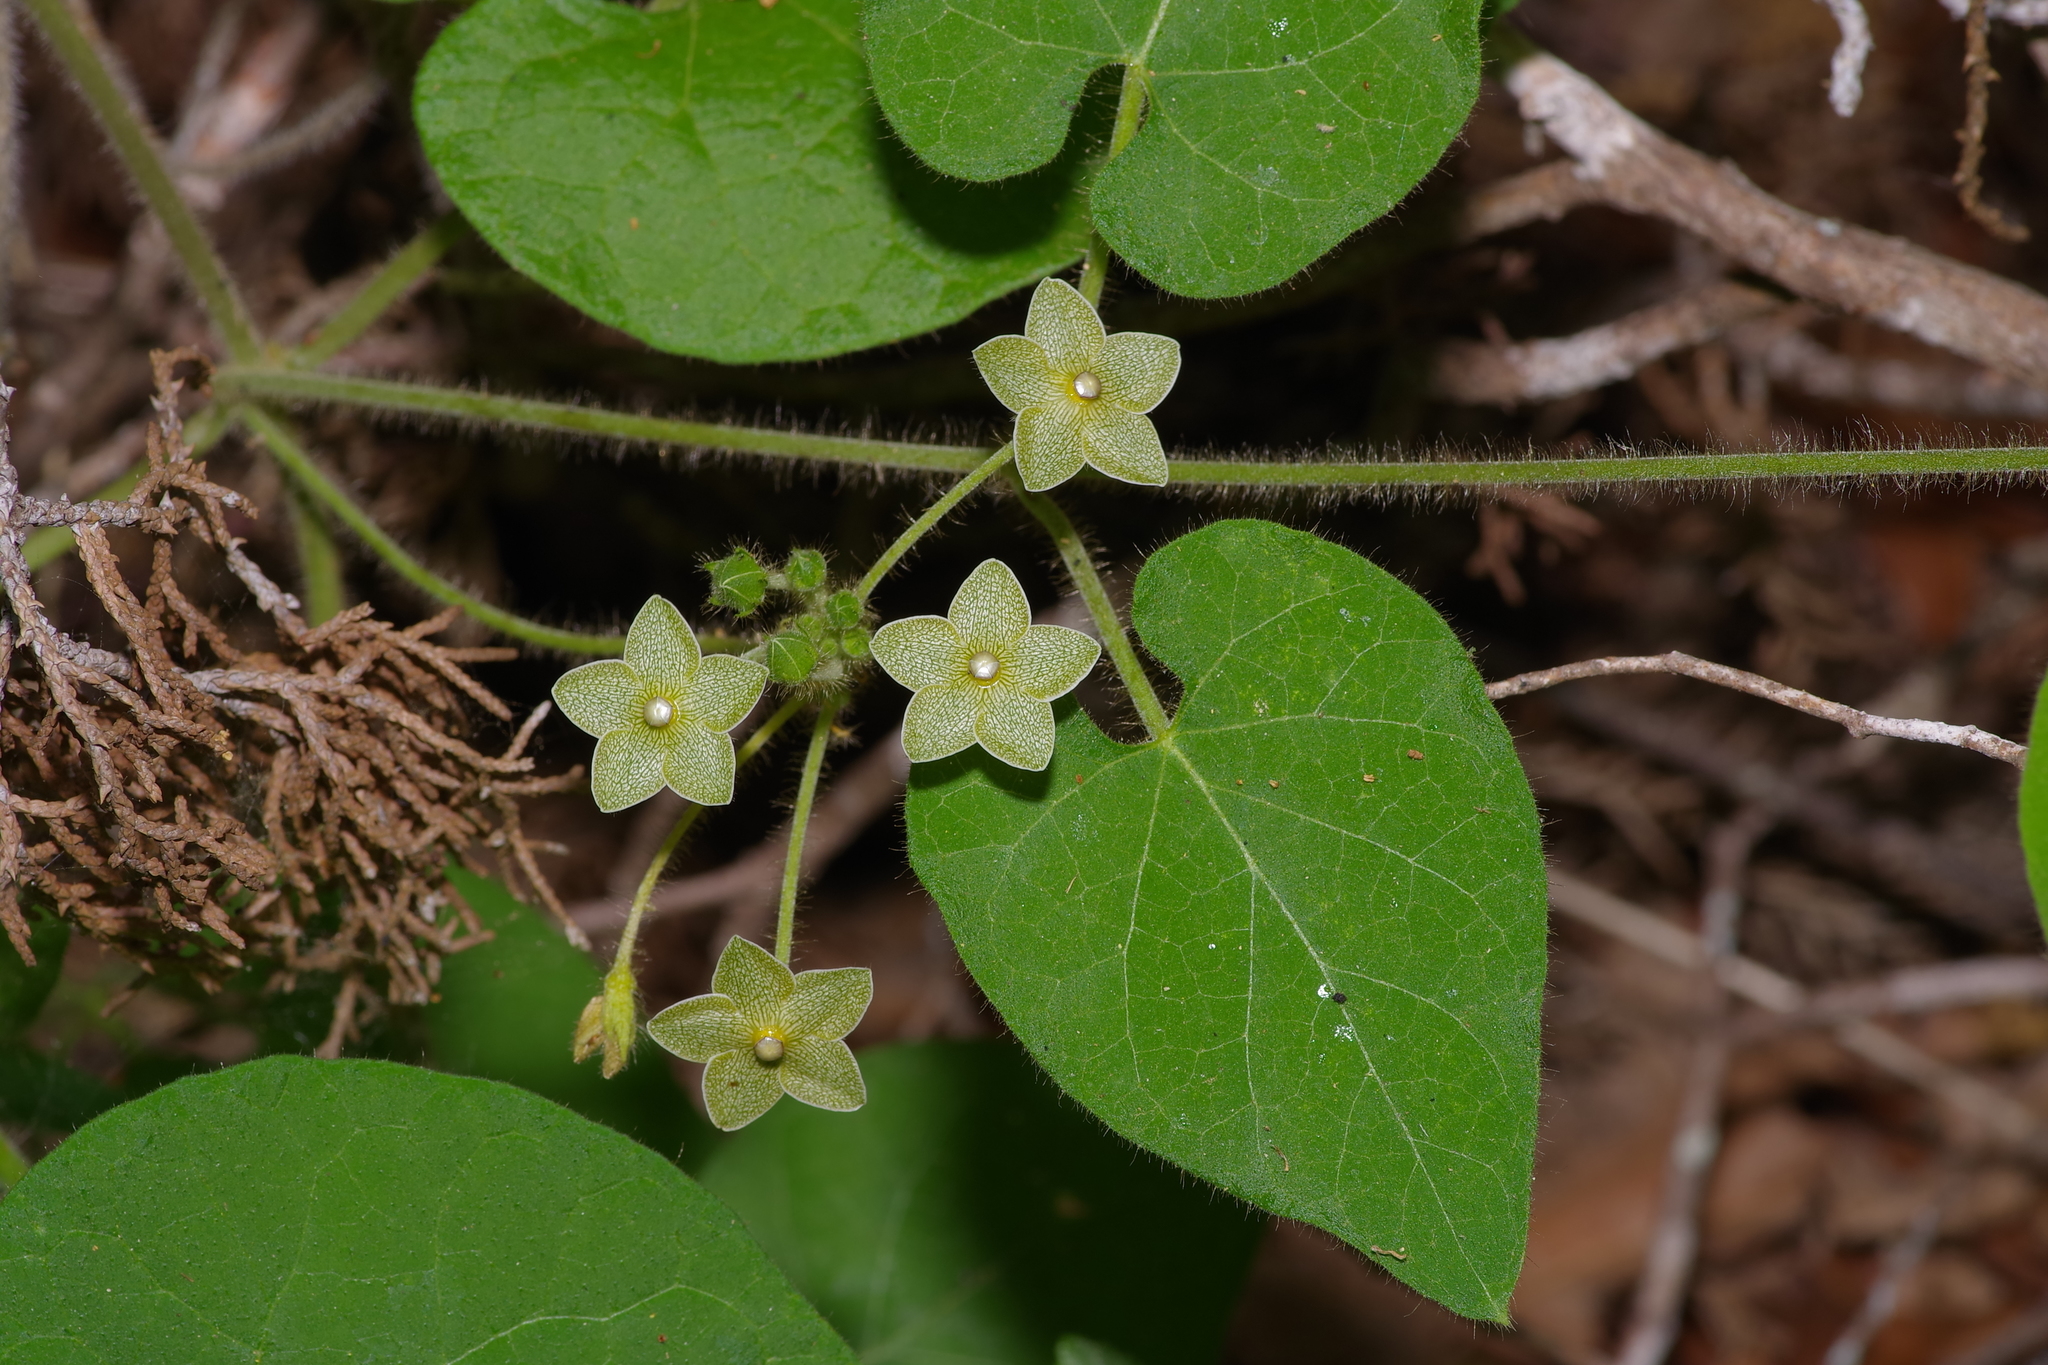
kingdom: Plantae
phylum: Tracheophyta
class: Magnoliopsida
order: Gentianales
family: Apocynaceae
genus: Dictyanthus
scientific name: Dictyanthus reticulatus
